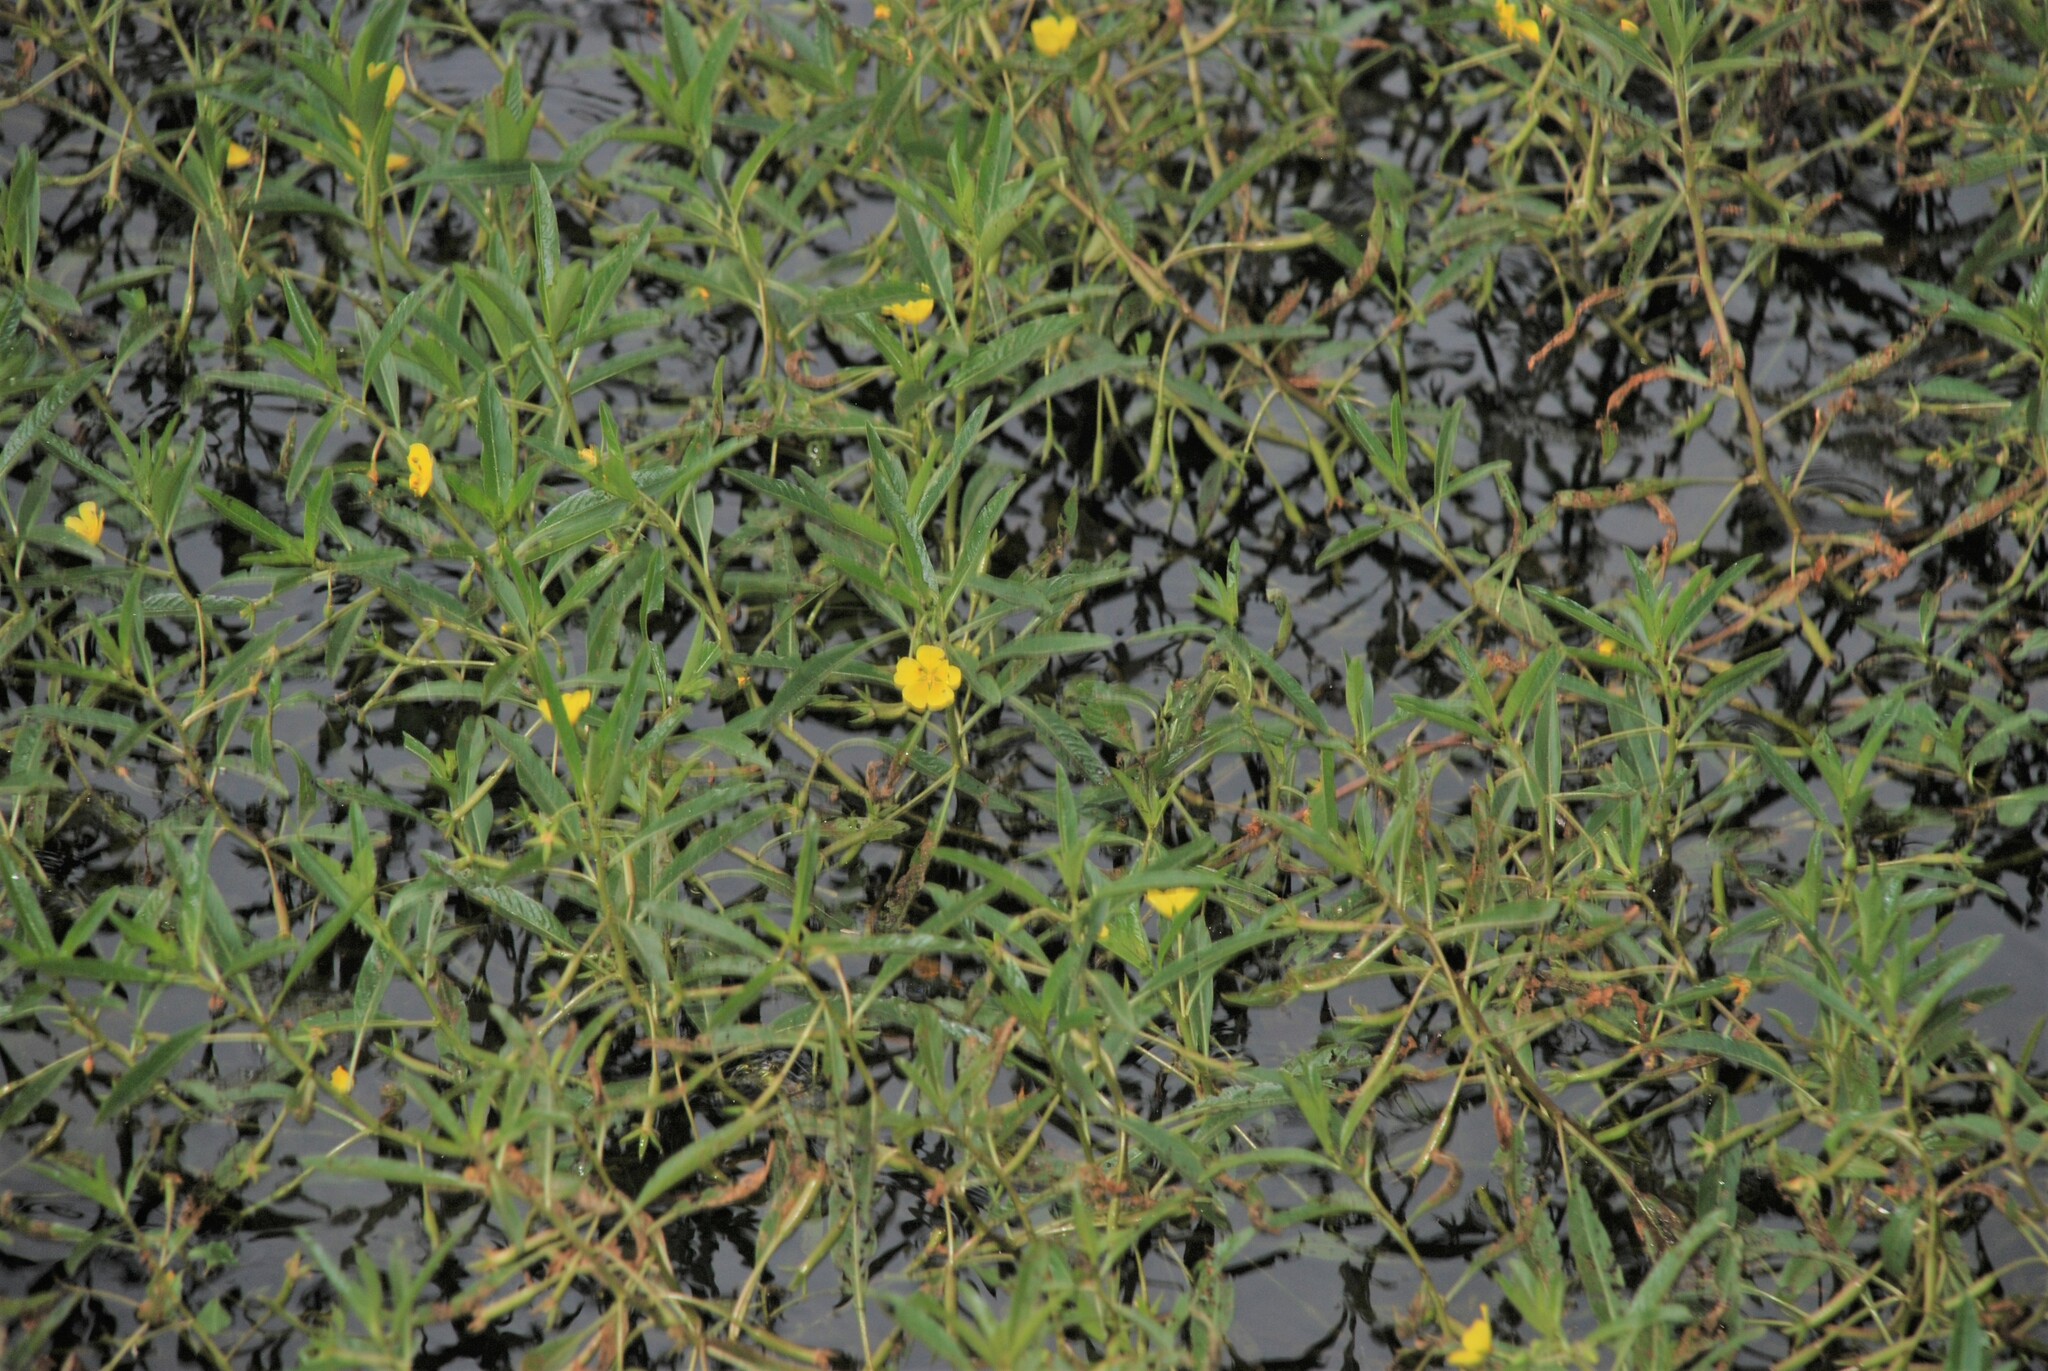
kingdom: Plantae
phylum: Tracheophyta
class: Magnoliopsida
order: Myrtales
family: Onagraceae
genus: Ludwigia
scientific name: Ludwigia peploides
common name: Floating primrose-willow
